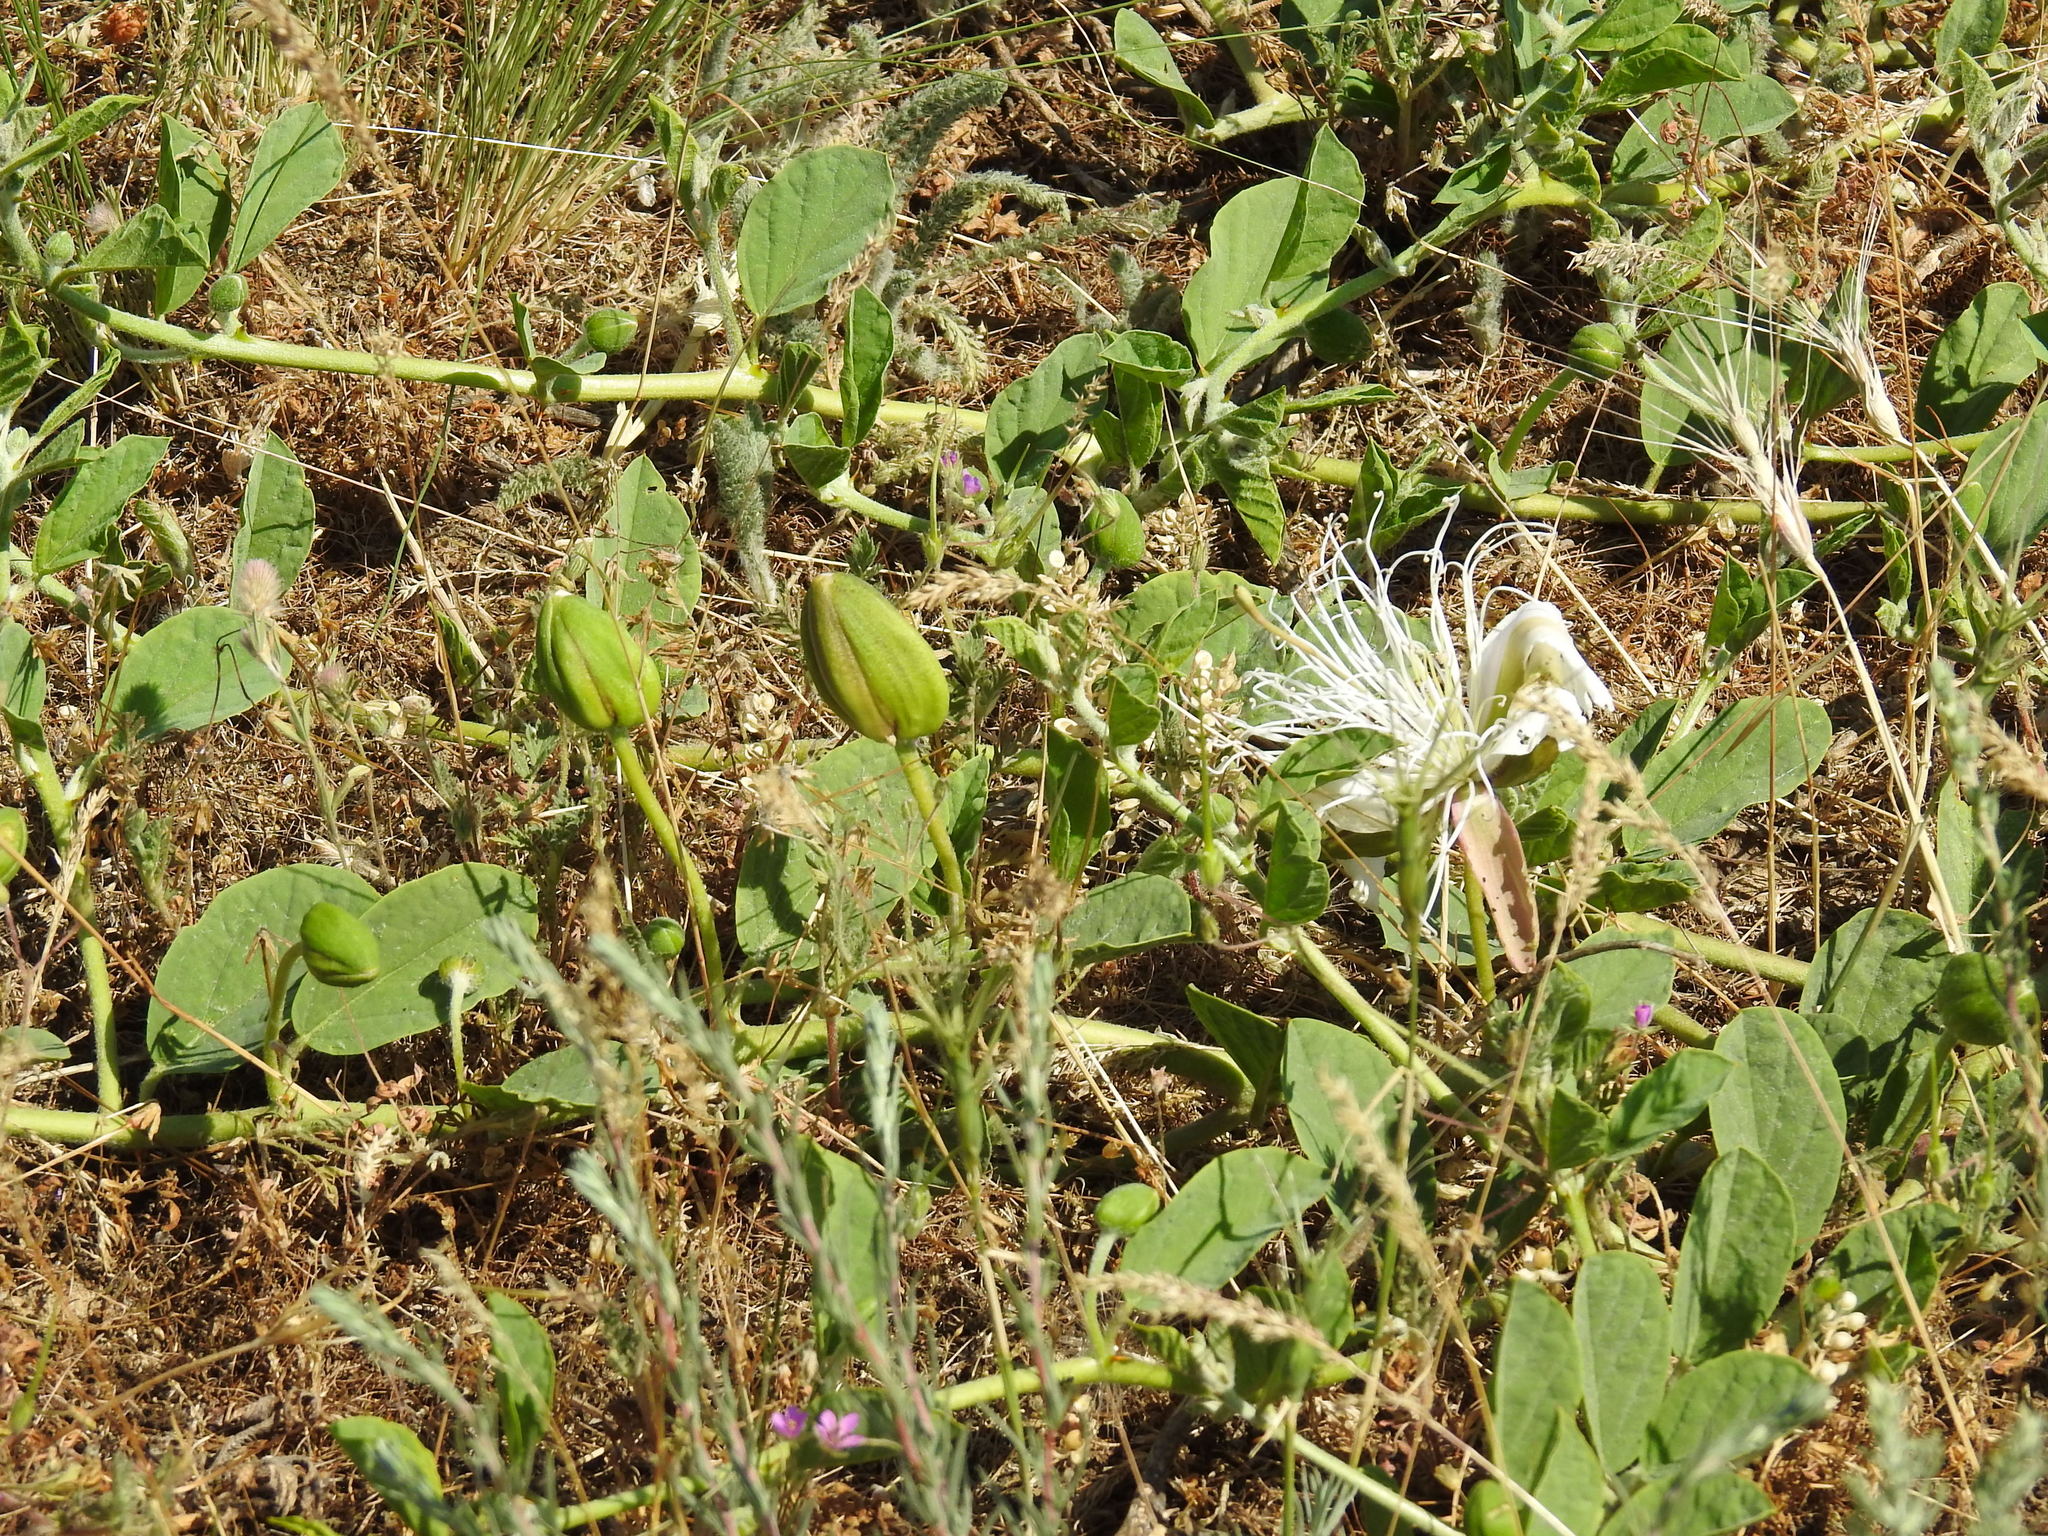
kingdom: Plantae
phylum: Tracheophyta
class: Magnoliopsida
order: Brassicales
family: Capparaceae
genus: Capparis
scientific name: Capparis spinosa
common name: Caper
